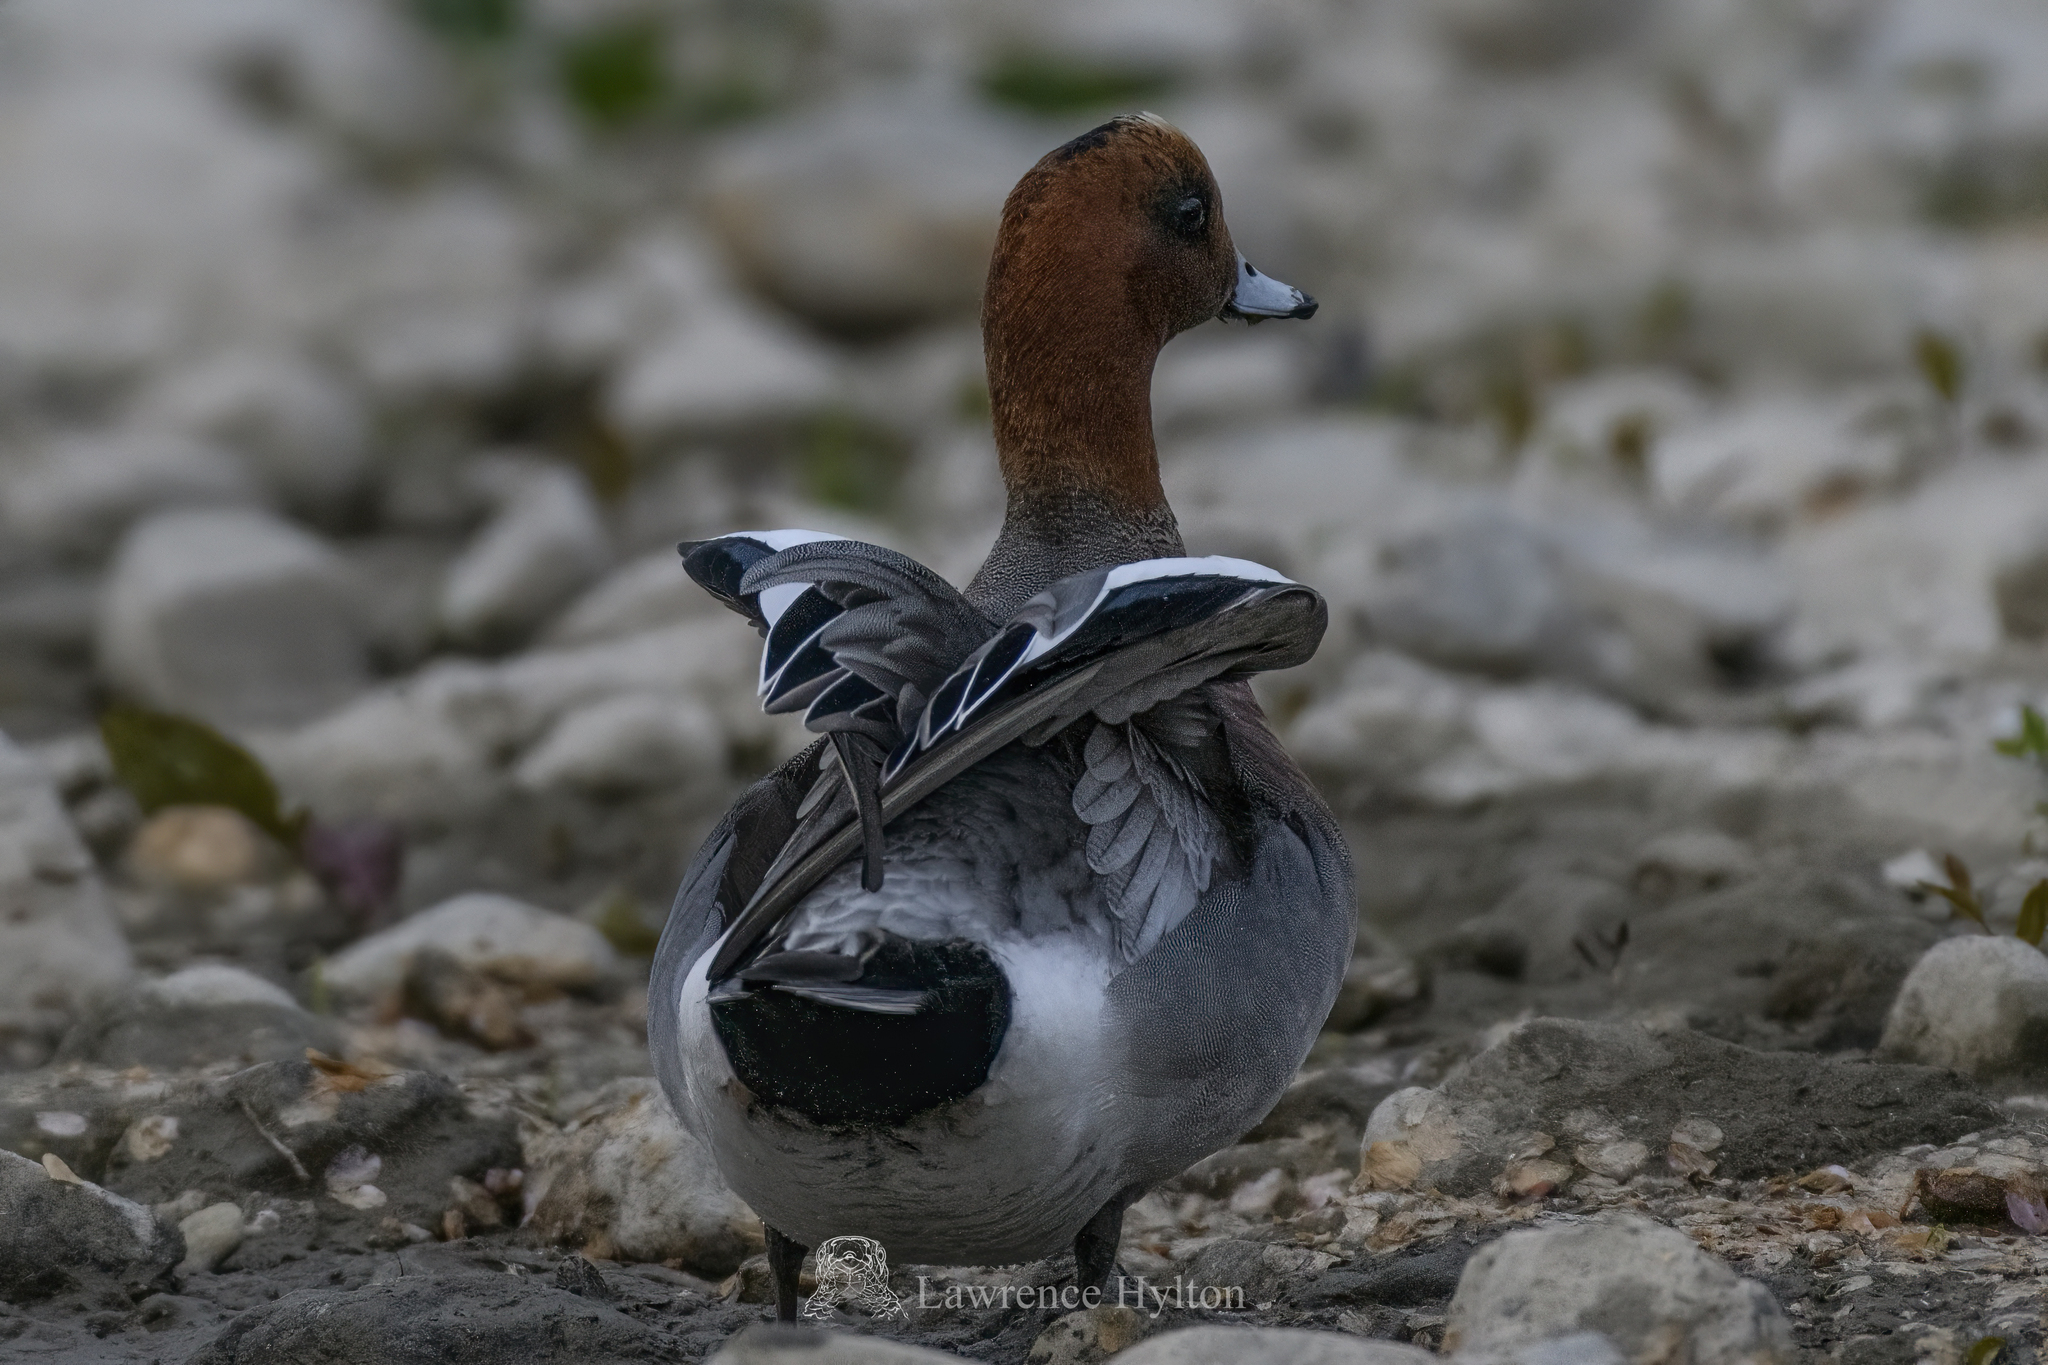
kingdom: Animalia
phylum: Chordata
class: Aves
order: Anseriformes
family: Anatidae
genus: Mareca
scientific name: Mareca penelope
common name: Eurasian wigeon
